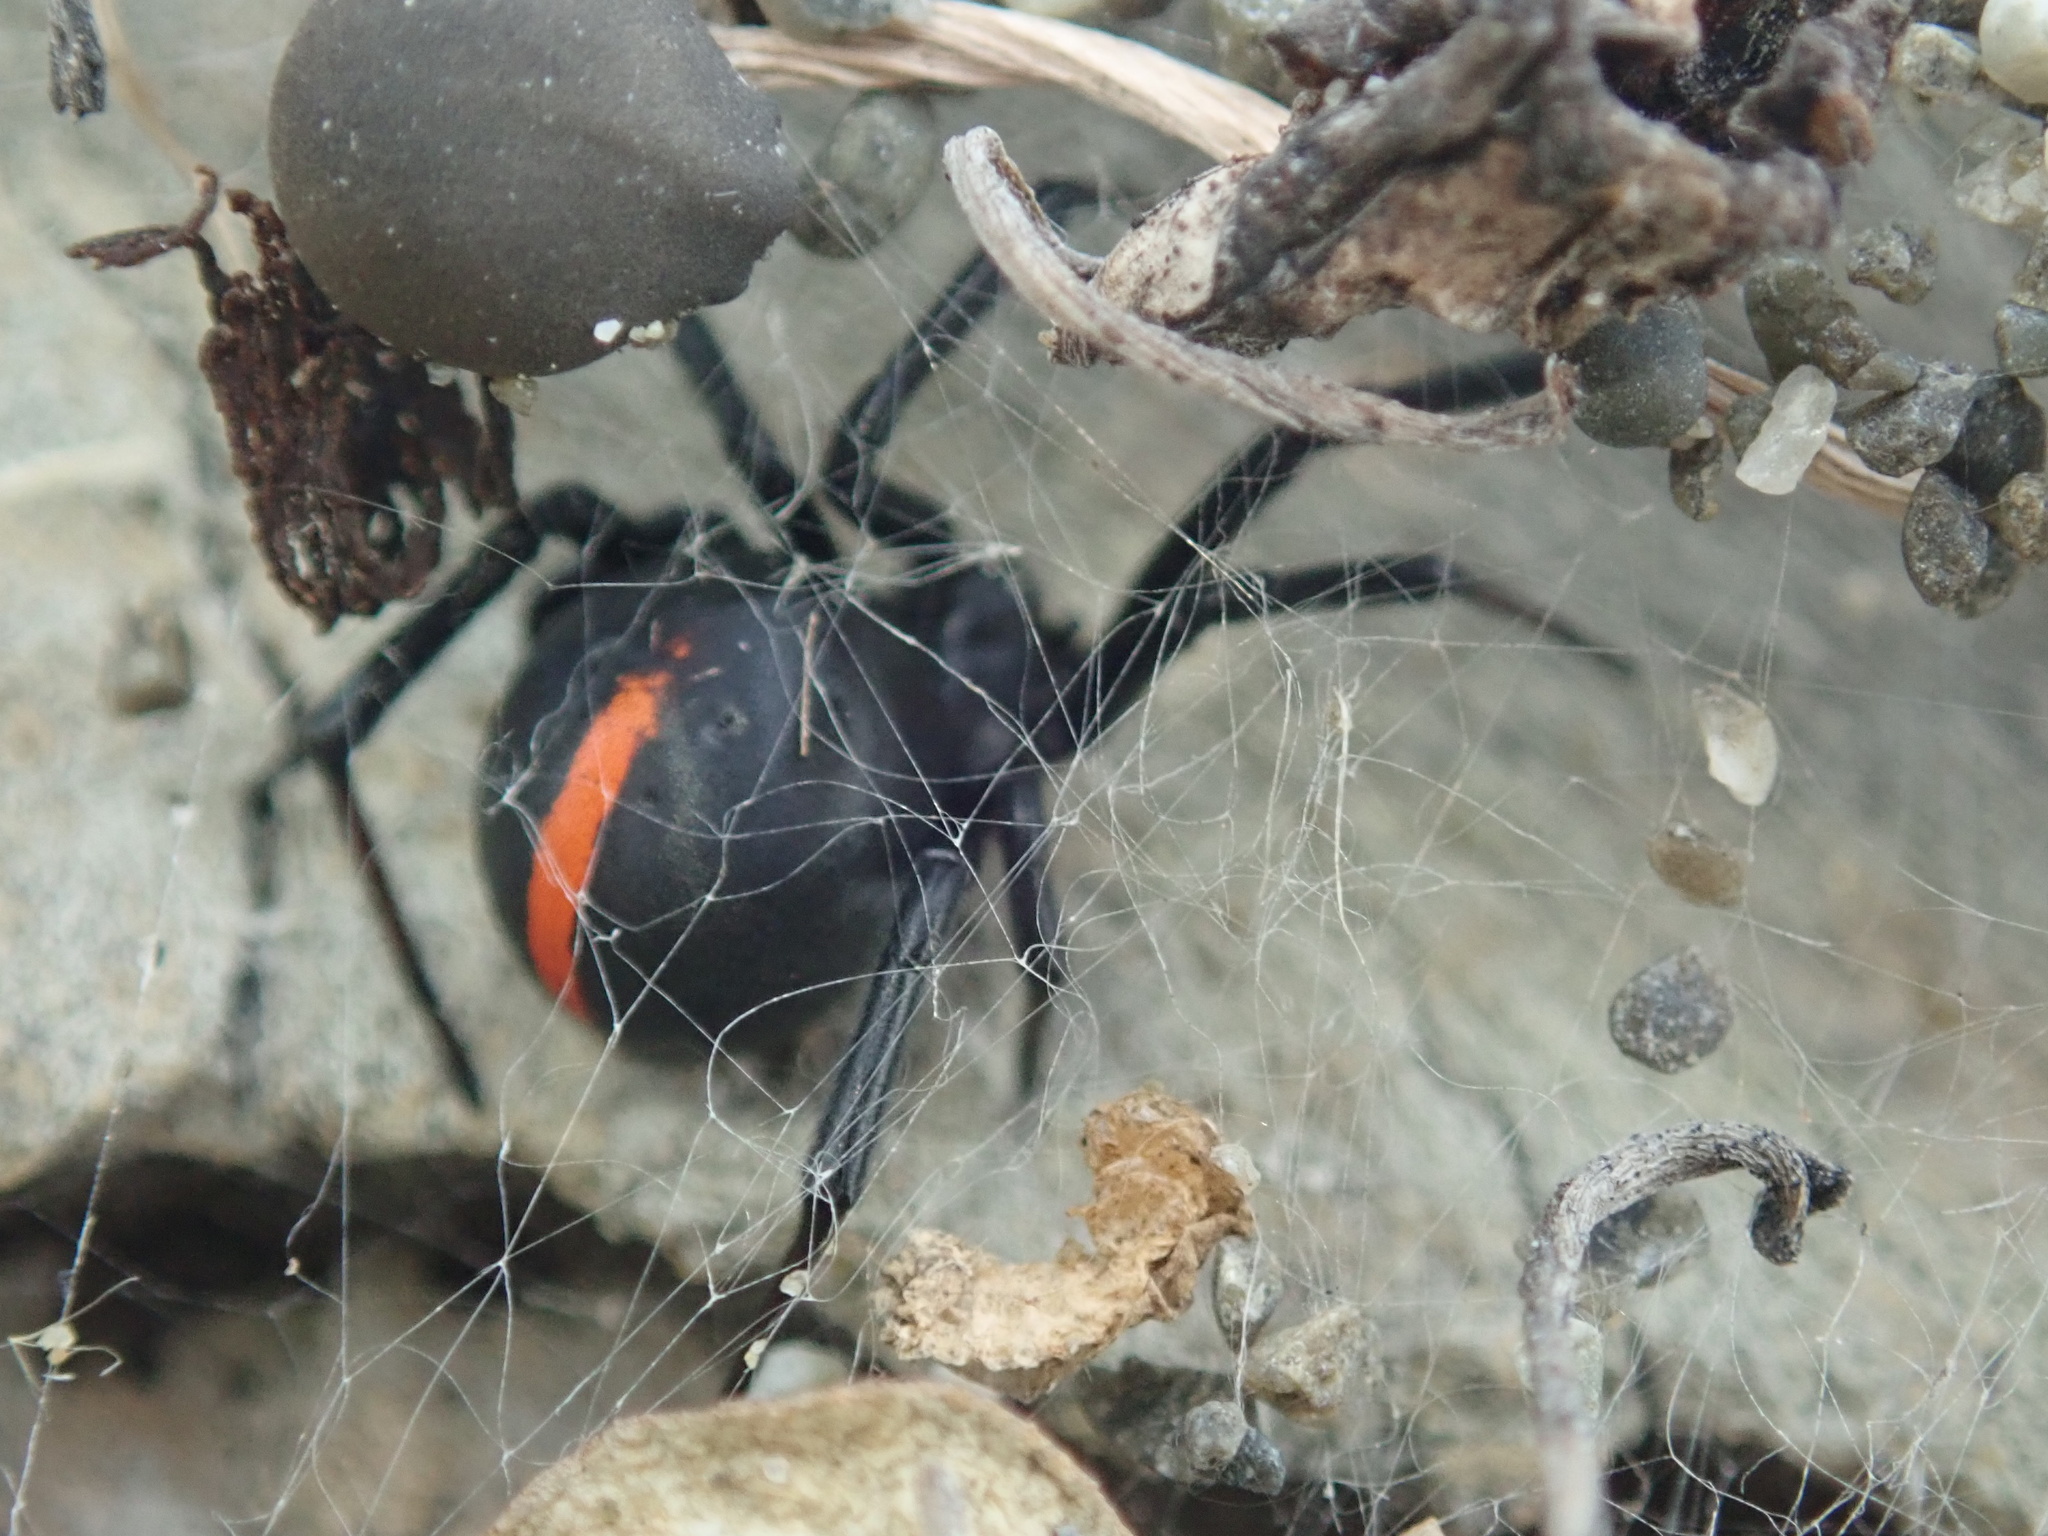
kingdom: Animalia
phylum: Arthropoda
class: Arachnida
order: Araneae
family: Theridiidae
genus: Latrodectus
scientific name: Latrodectus katipo
